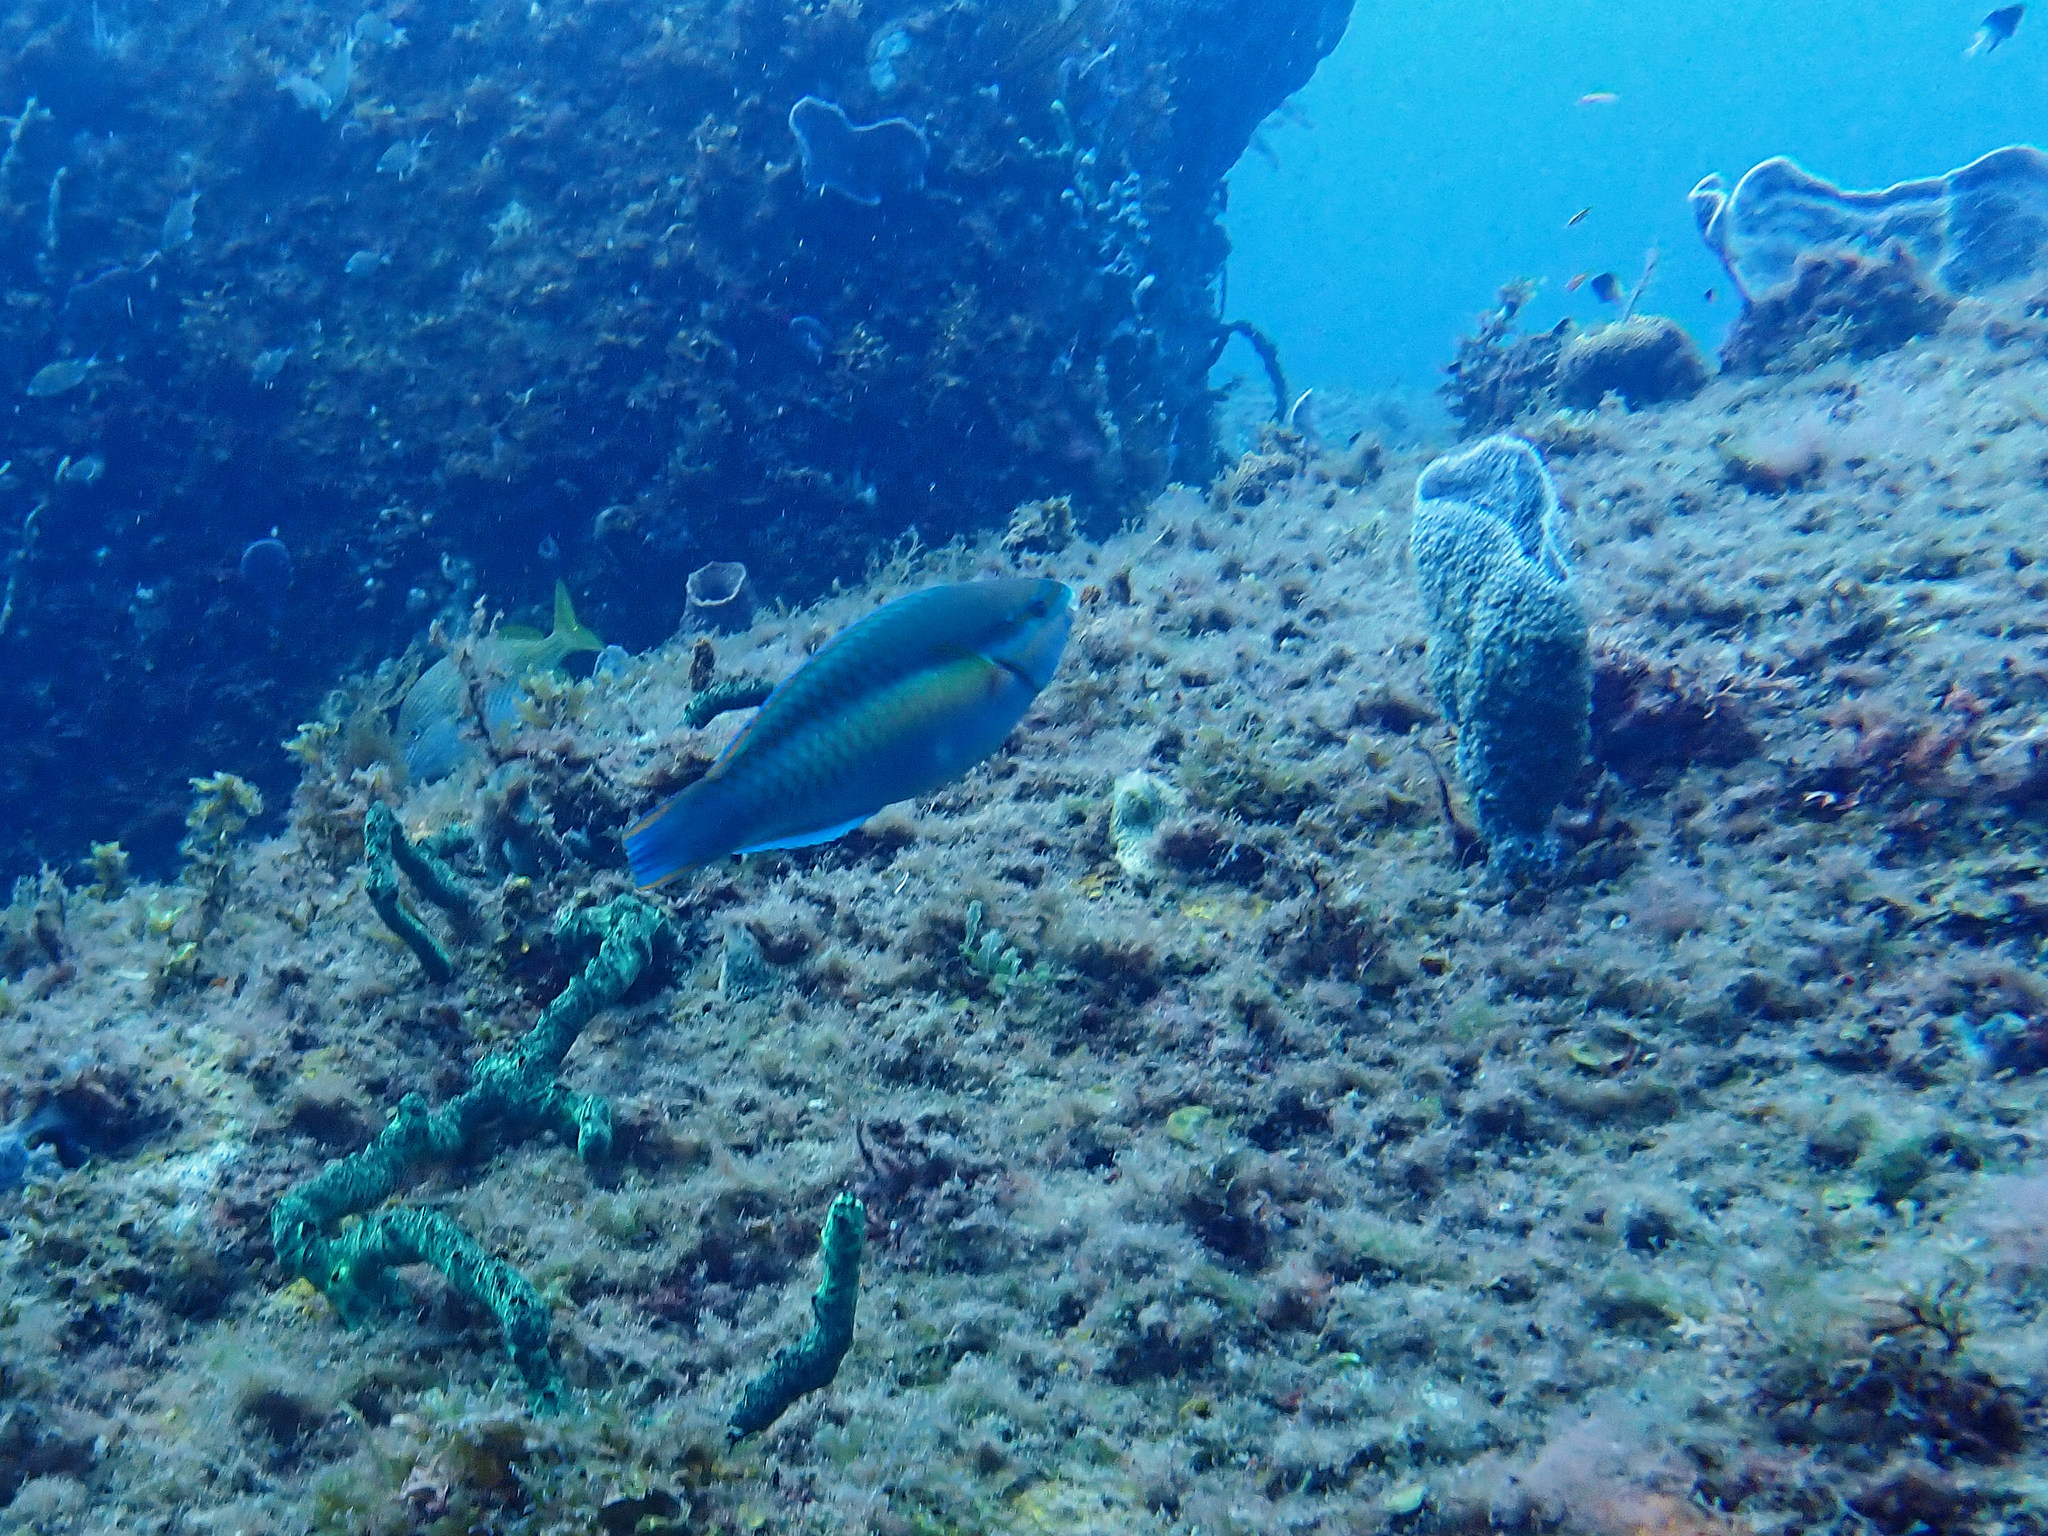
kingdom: Animalia
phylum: Chordata
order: Perciformes
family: Scaridae
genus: Scarus
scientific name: Scarus taeniopterus
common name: Princess parrotfish
